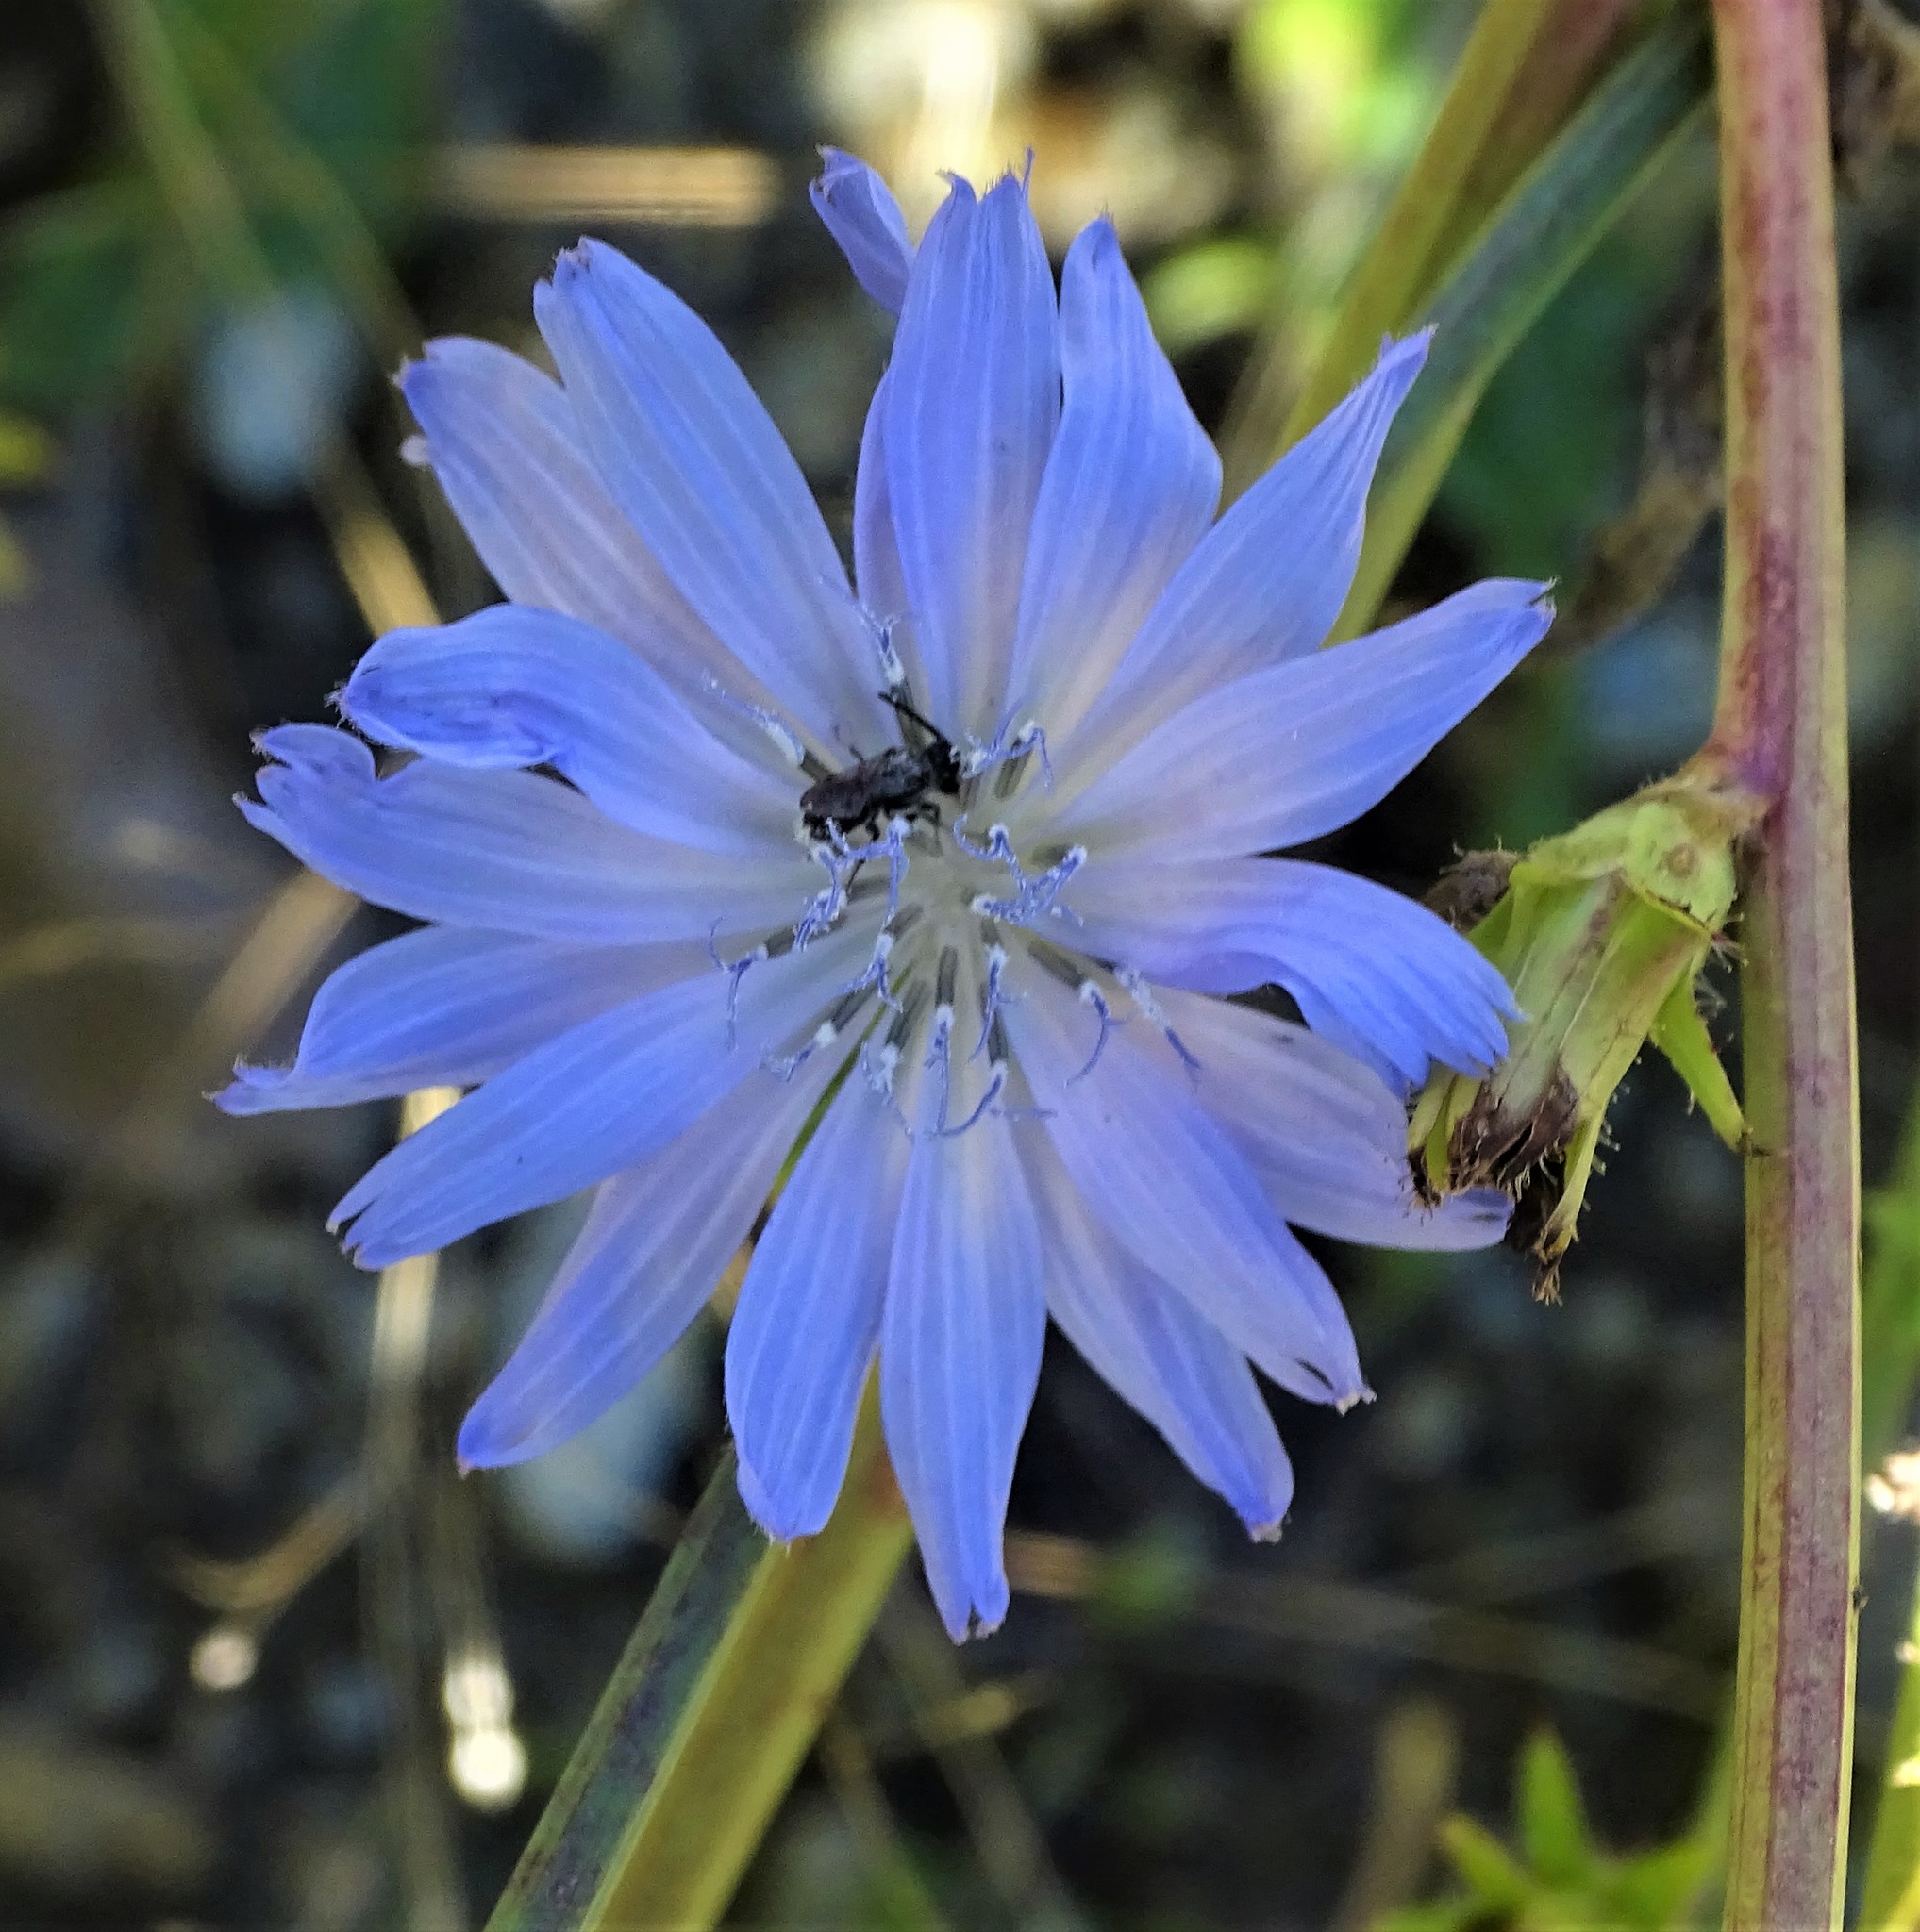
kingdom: Plantae
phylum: Tracheophyta
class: Magnoliopsida
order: Asterales
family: Asteraceae
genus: Cichorium
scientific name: Cichorium intybus
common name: Chicory
